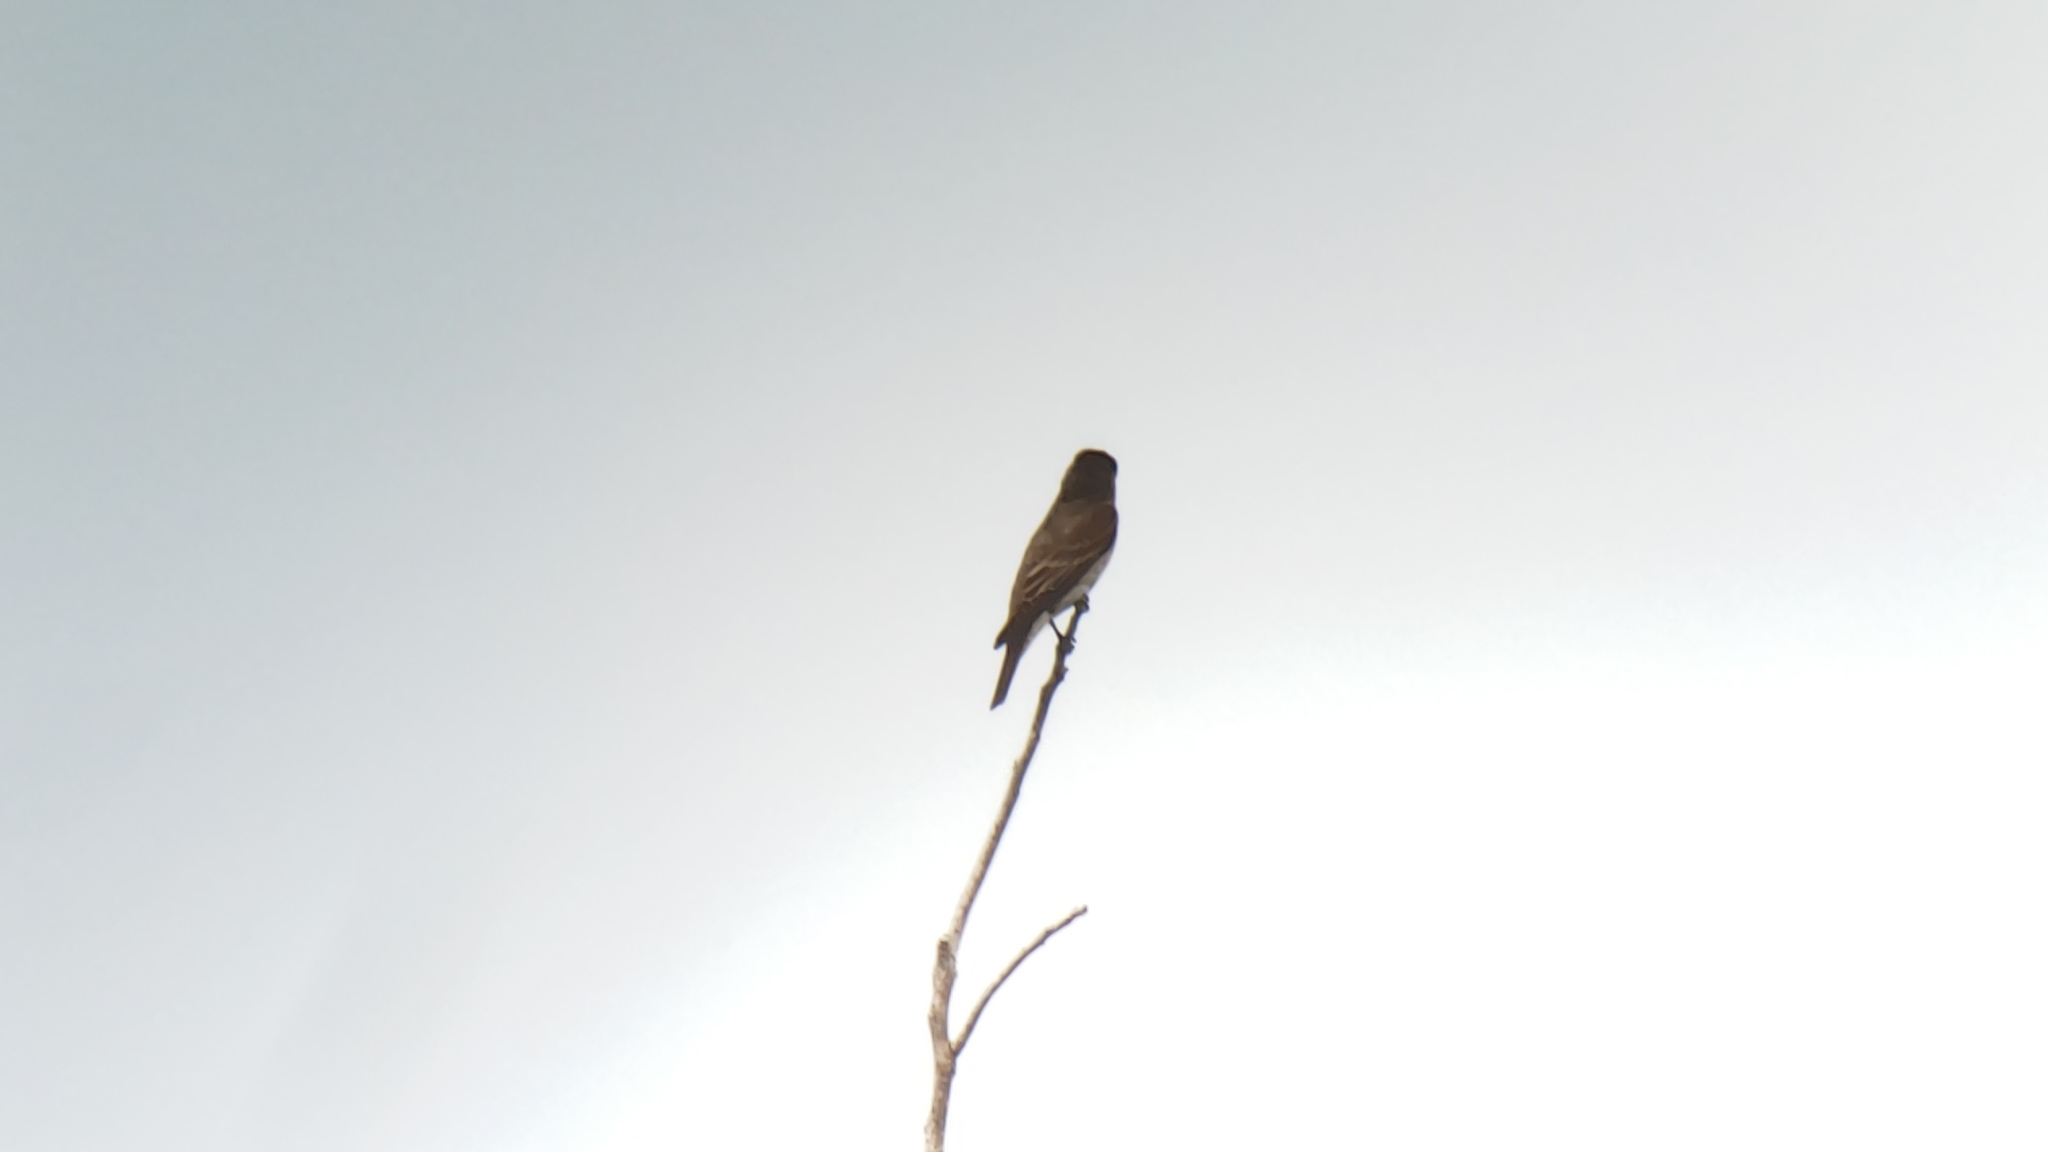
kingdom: Animalia
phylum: Chordata
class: Aves
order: Passeriformes
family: Tyrannidae
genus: Contopus
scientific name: Contopus cooperi
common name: Olive-sided flycatcher
